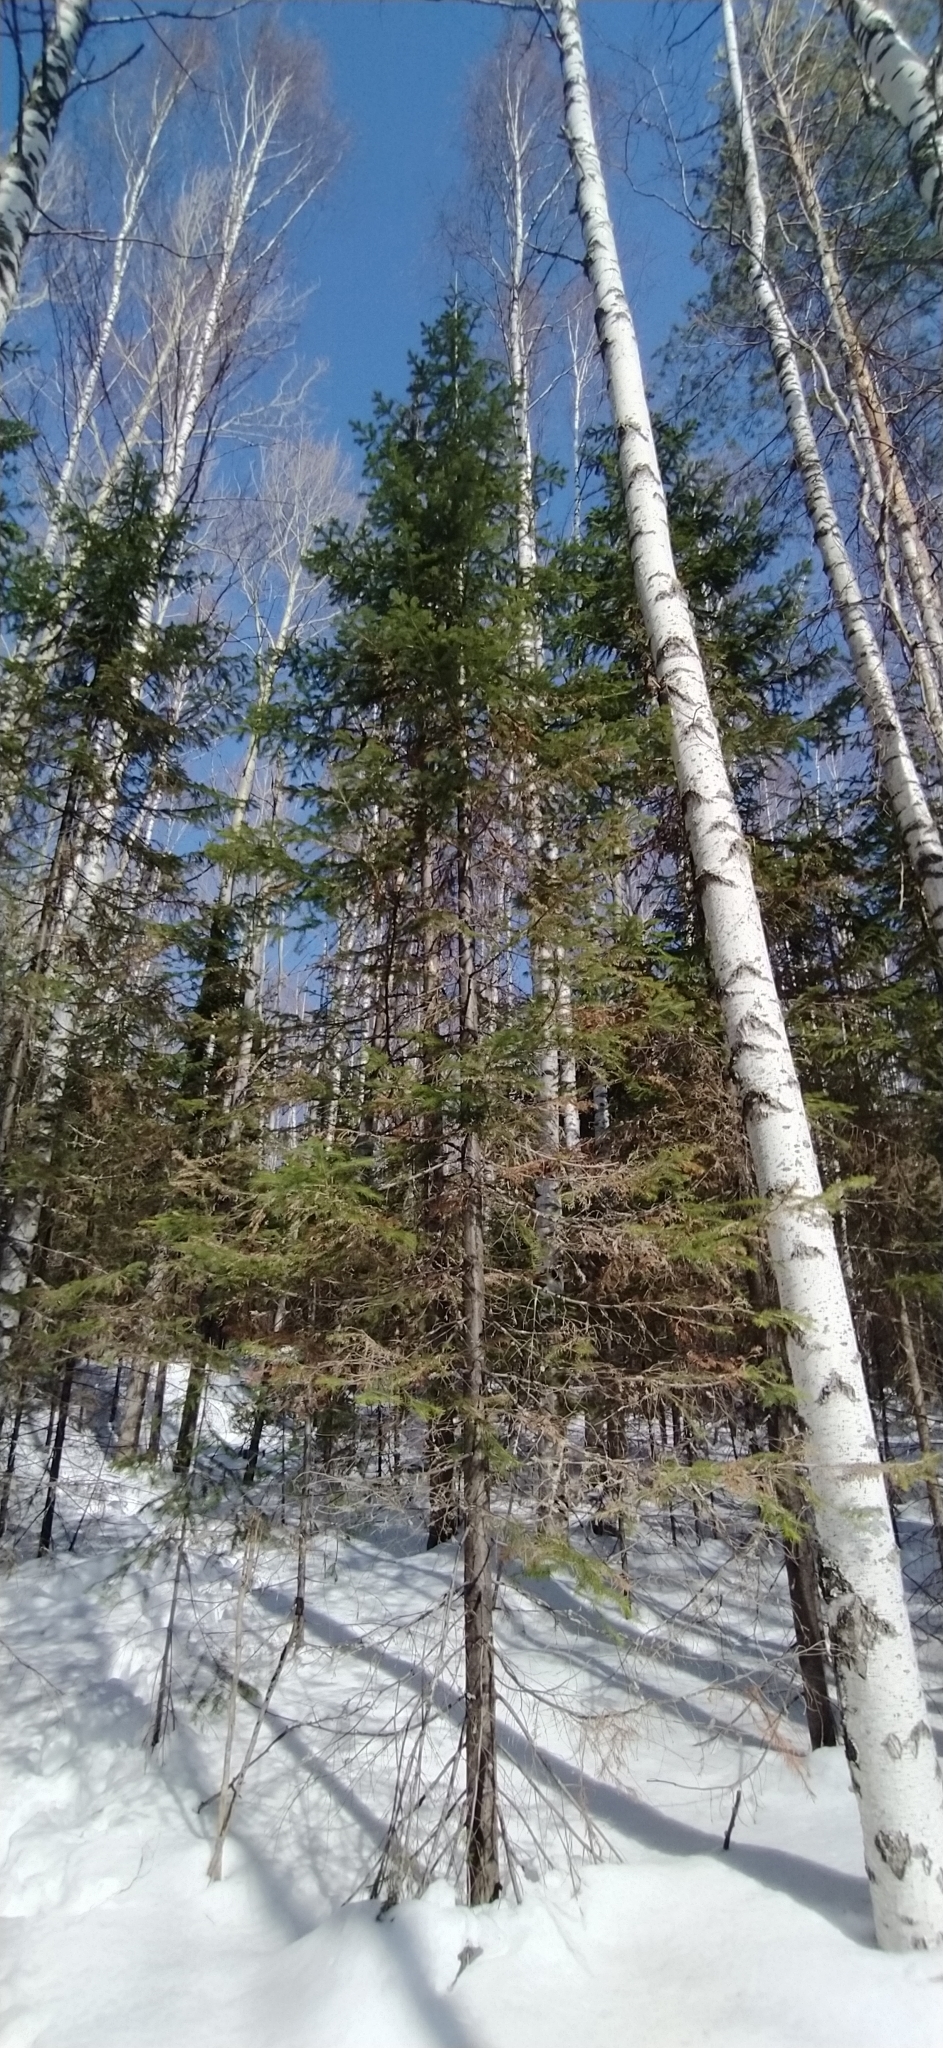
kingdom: Plantae
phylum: Tracheophyta
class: Pinopsida
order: Pinales
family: Pinaceae
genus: Abies
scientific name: Abies sibirica
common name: Siberian fir
